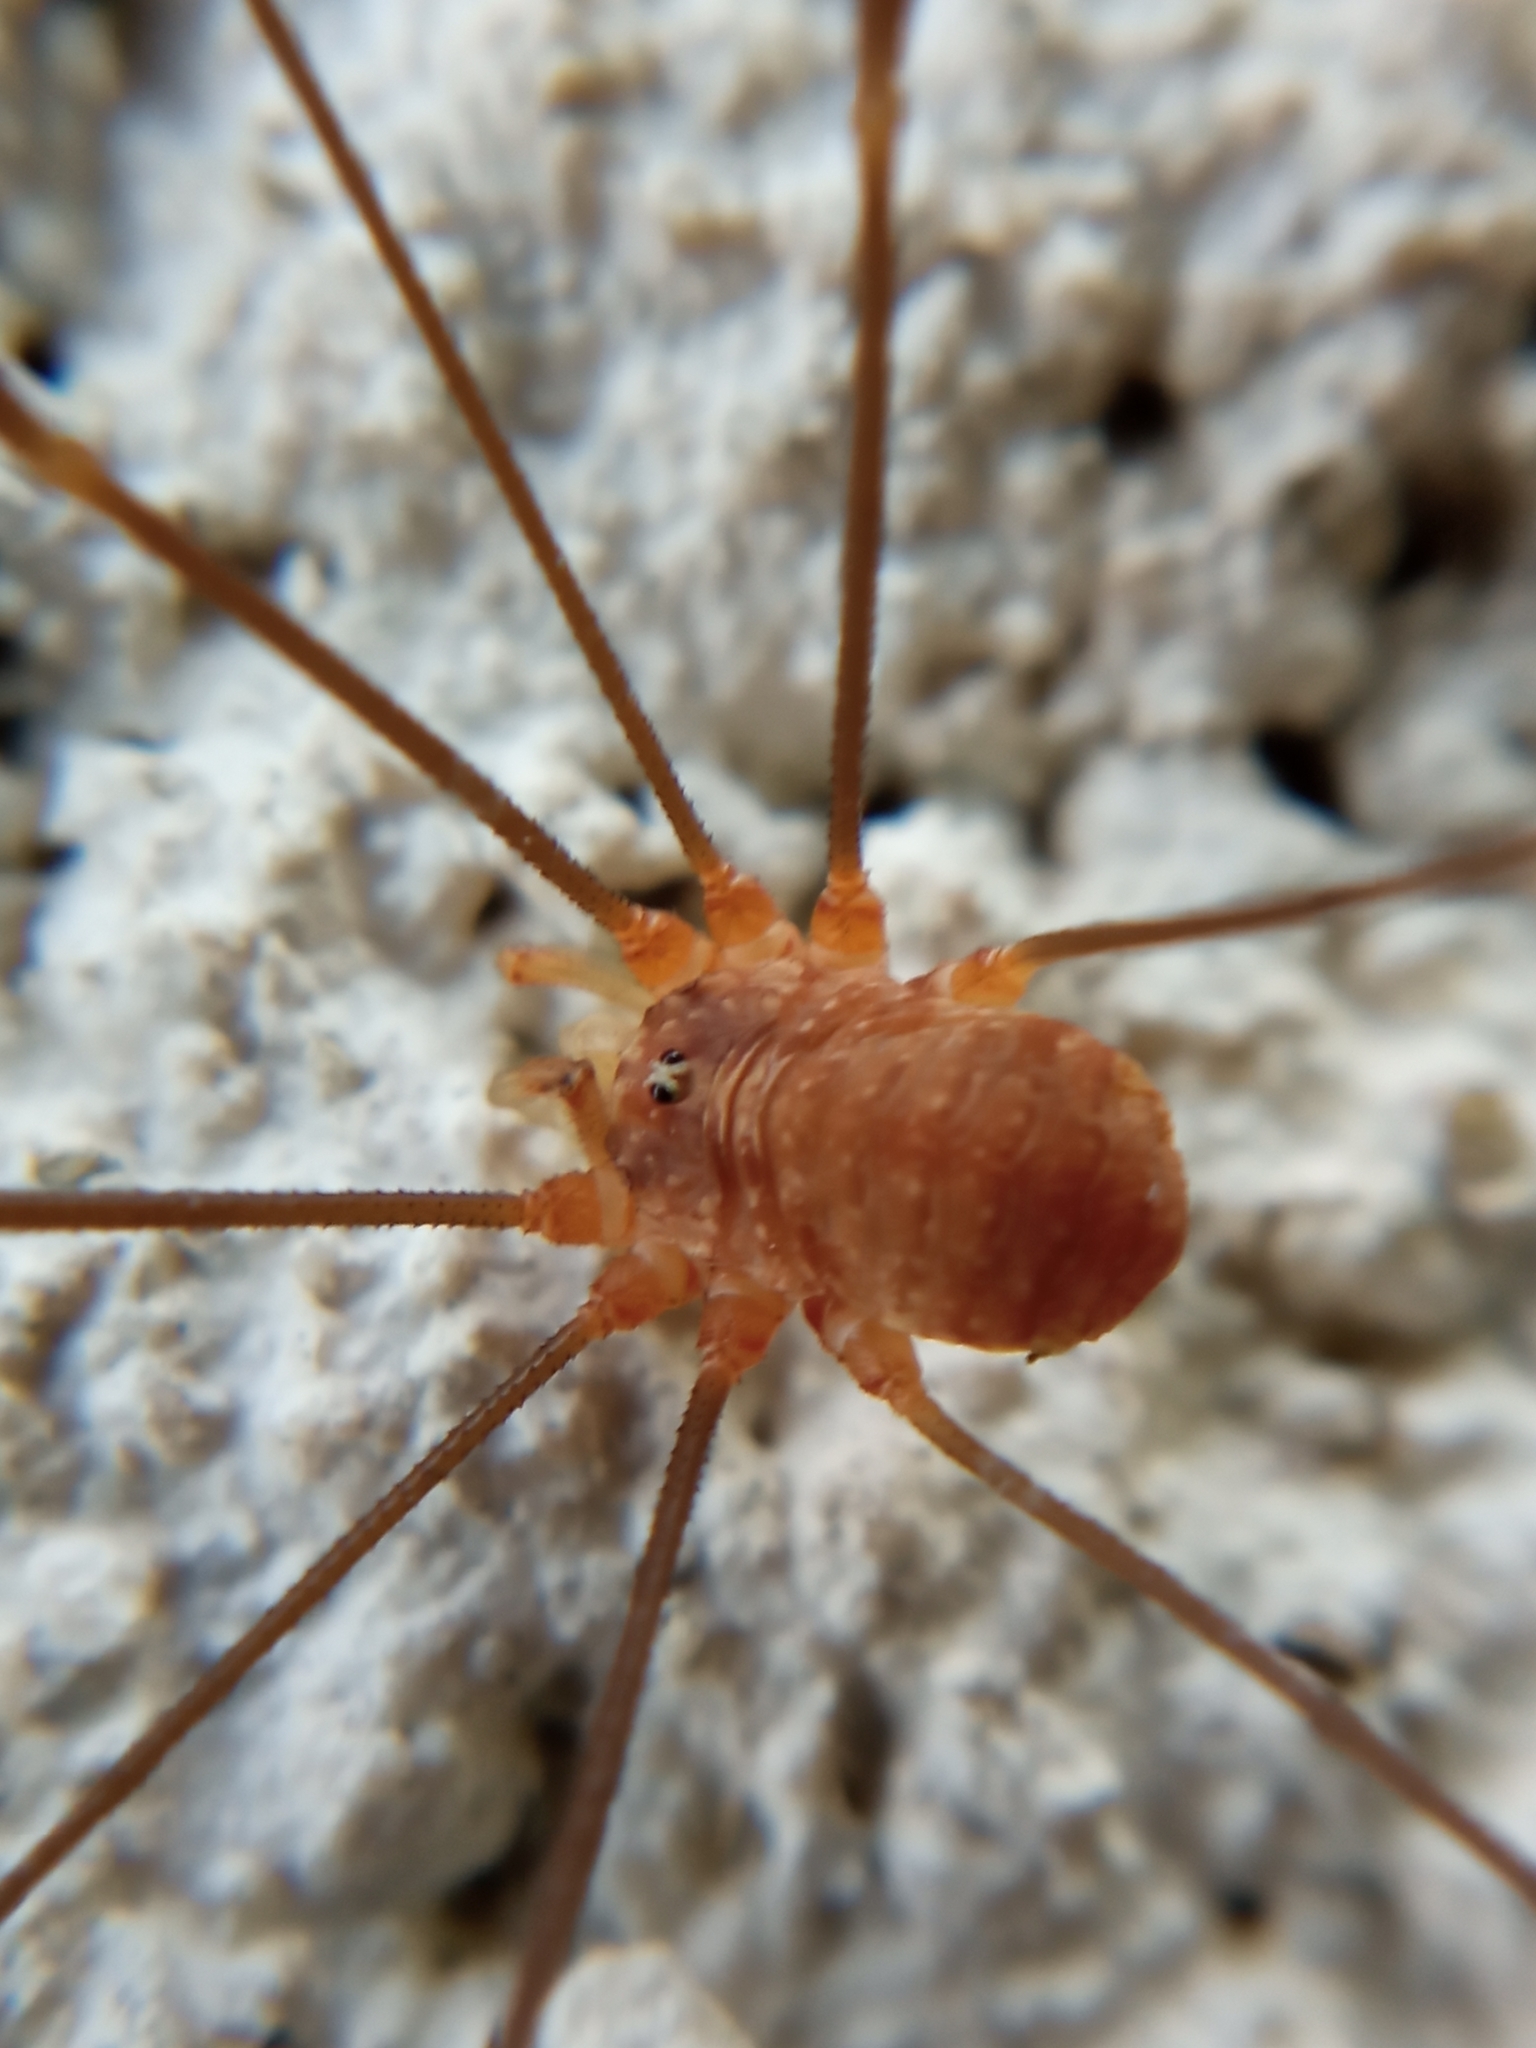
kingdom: Animalia
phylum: Arthropoda
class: Arachnida
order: Opiliones
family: Phalangiidae
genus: Opilio
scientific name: Opilio canestrinii
